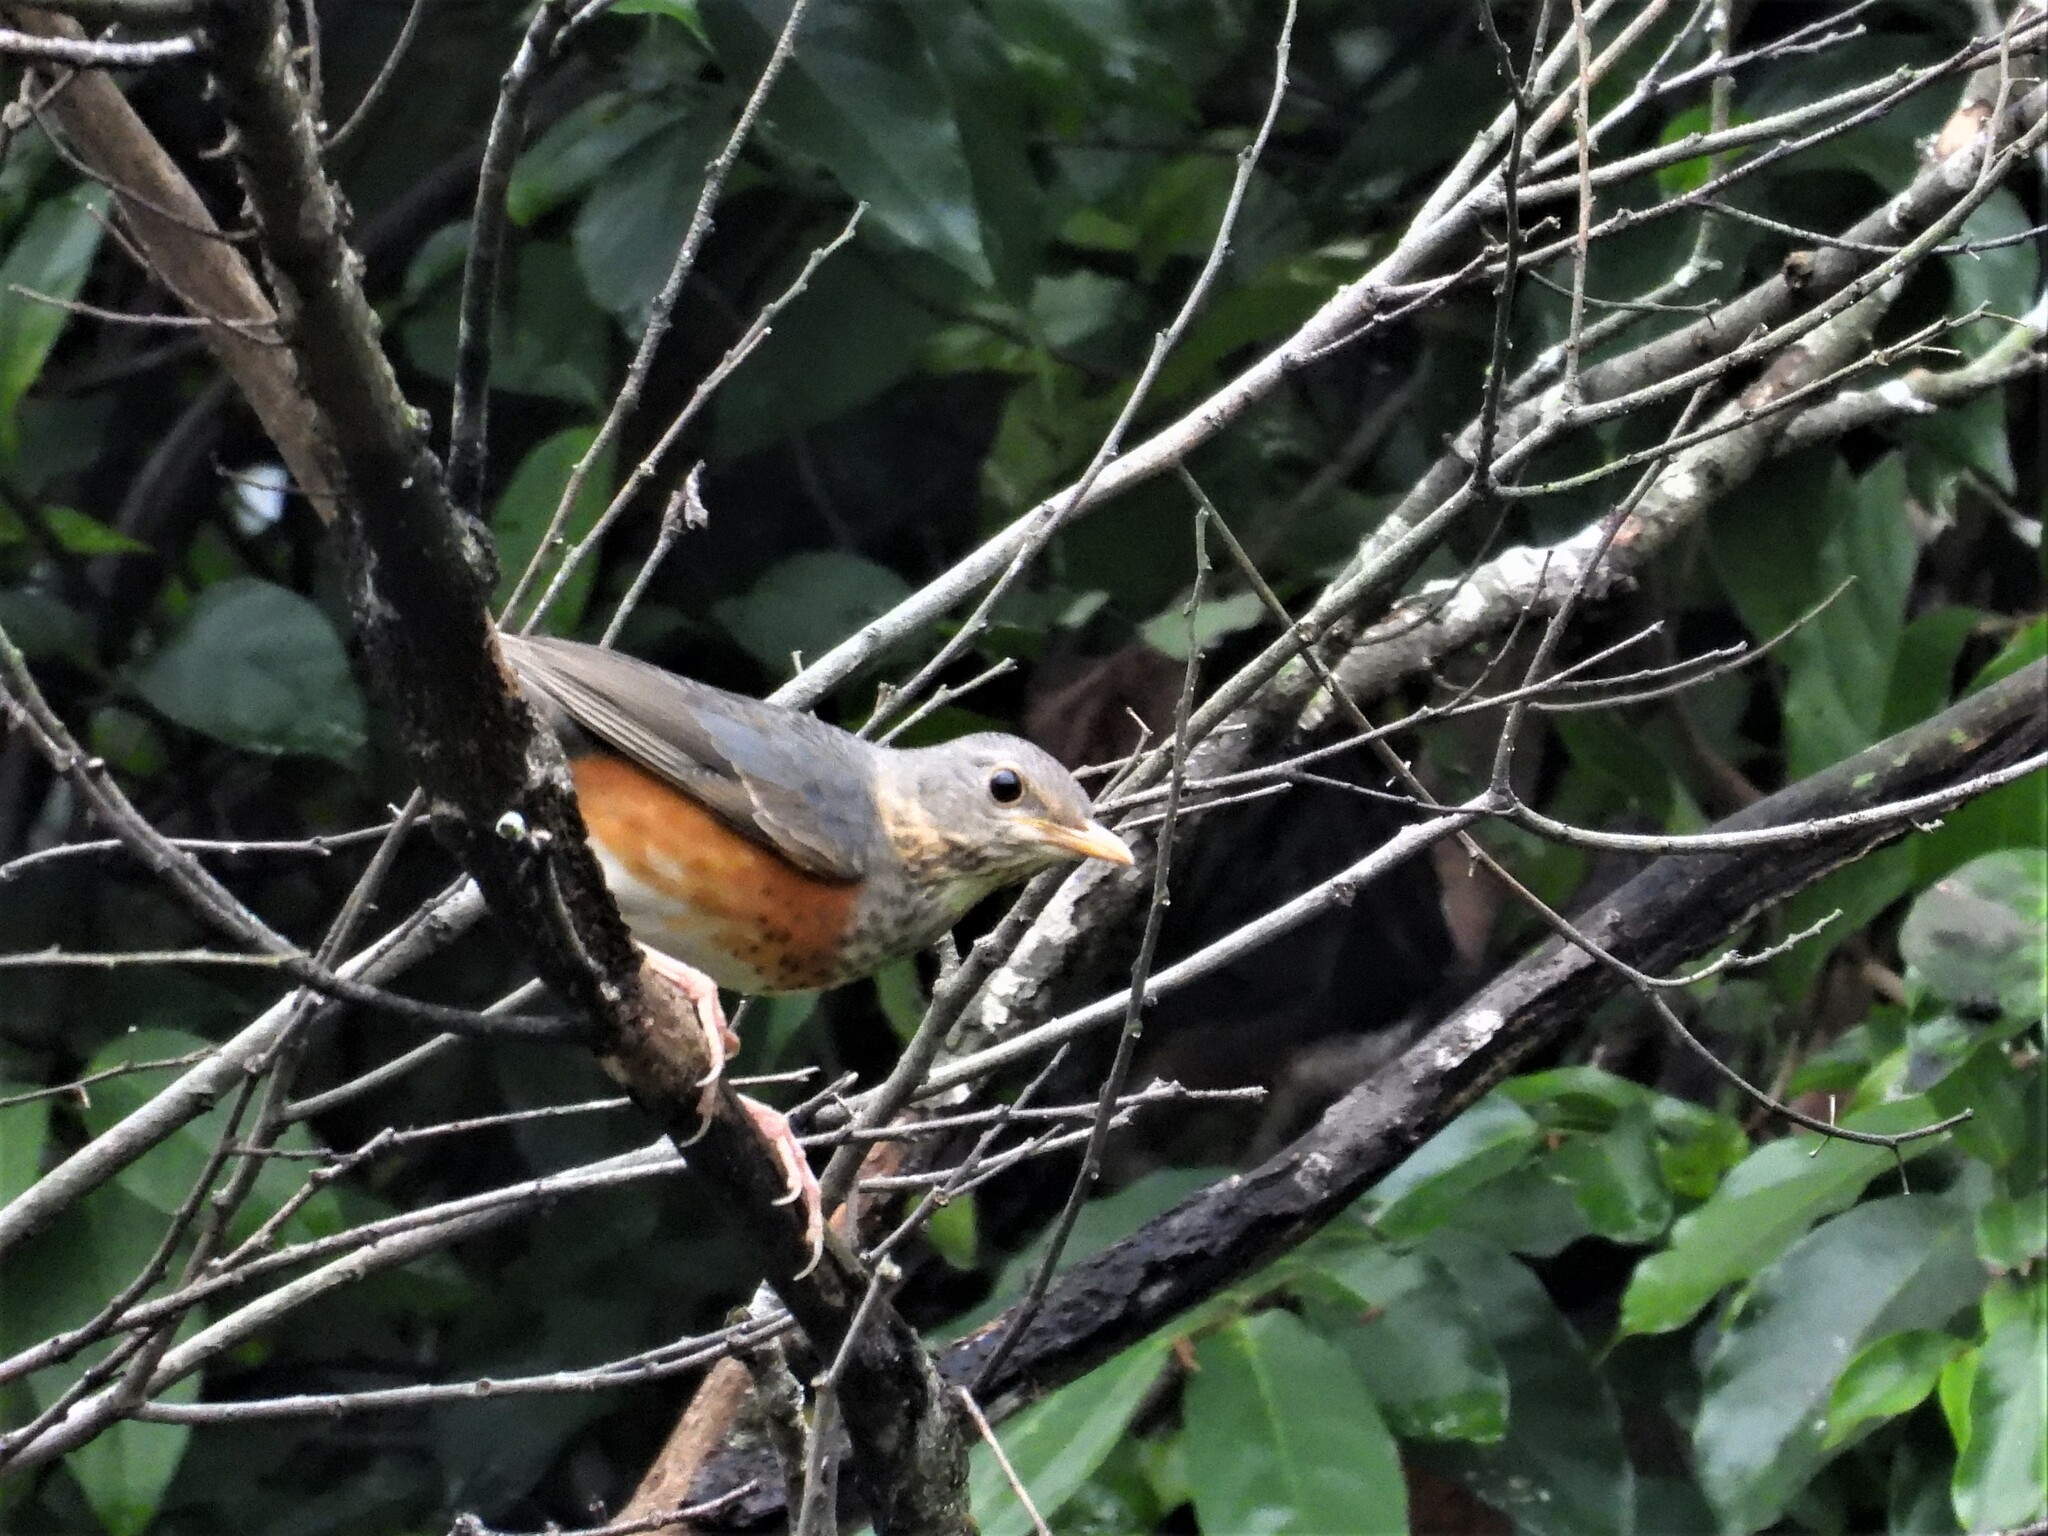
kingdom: Animalia
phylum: Chordata
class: Aves
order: Passeriformes
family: Turdidae
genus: Turdus
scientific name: Turdus hortulorum
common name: Grey-backed thrush
